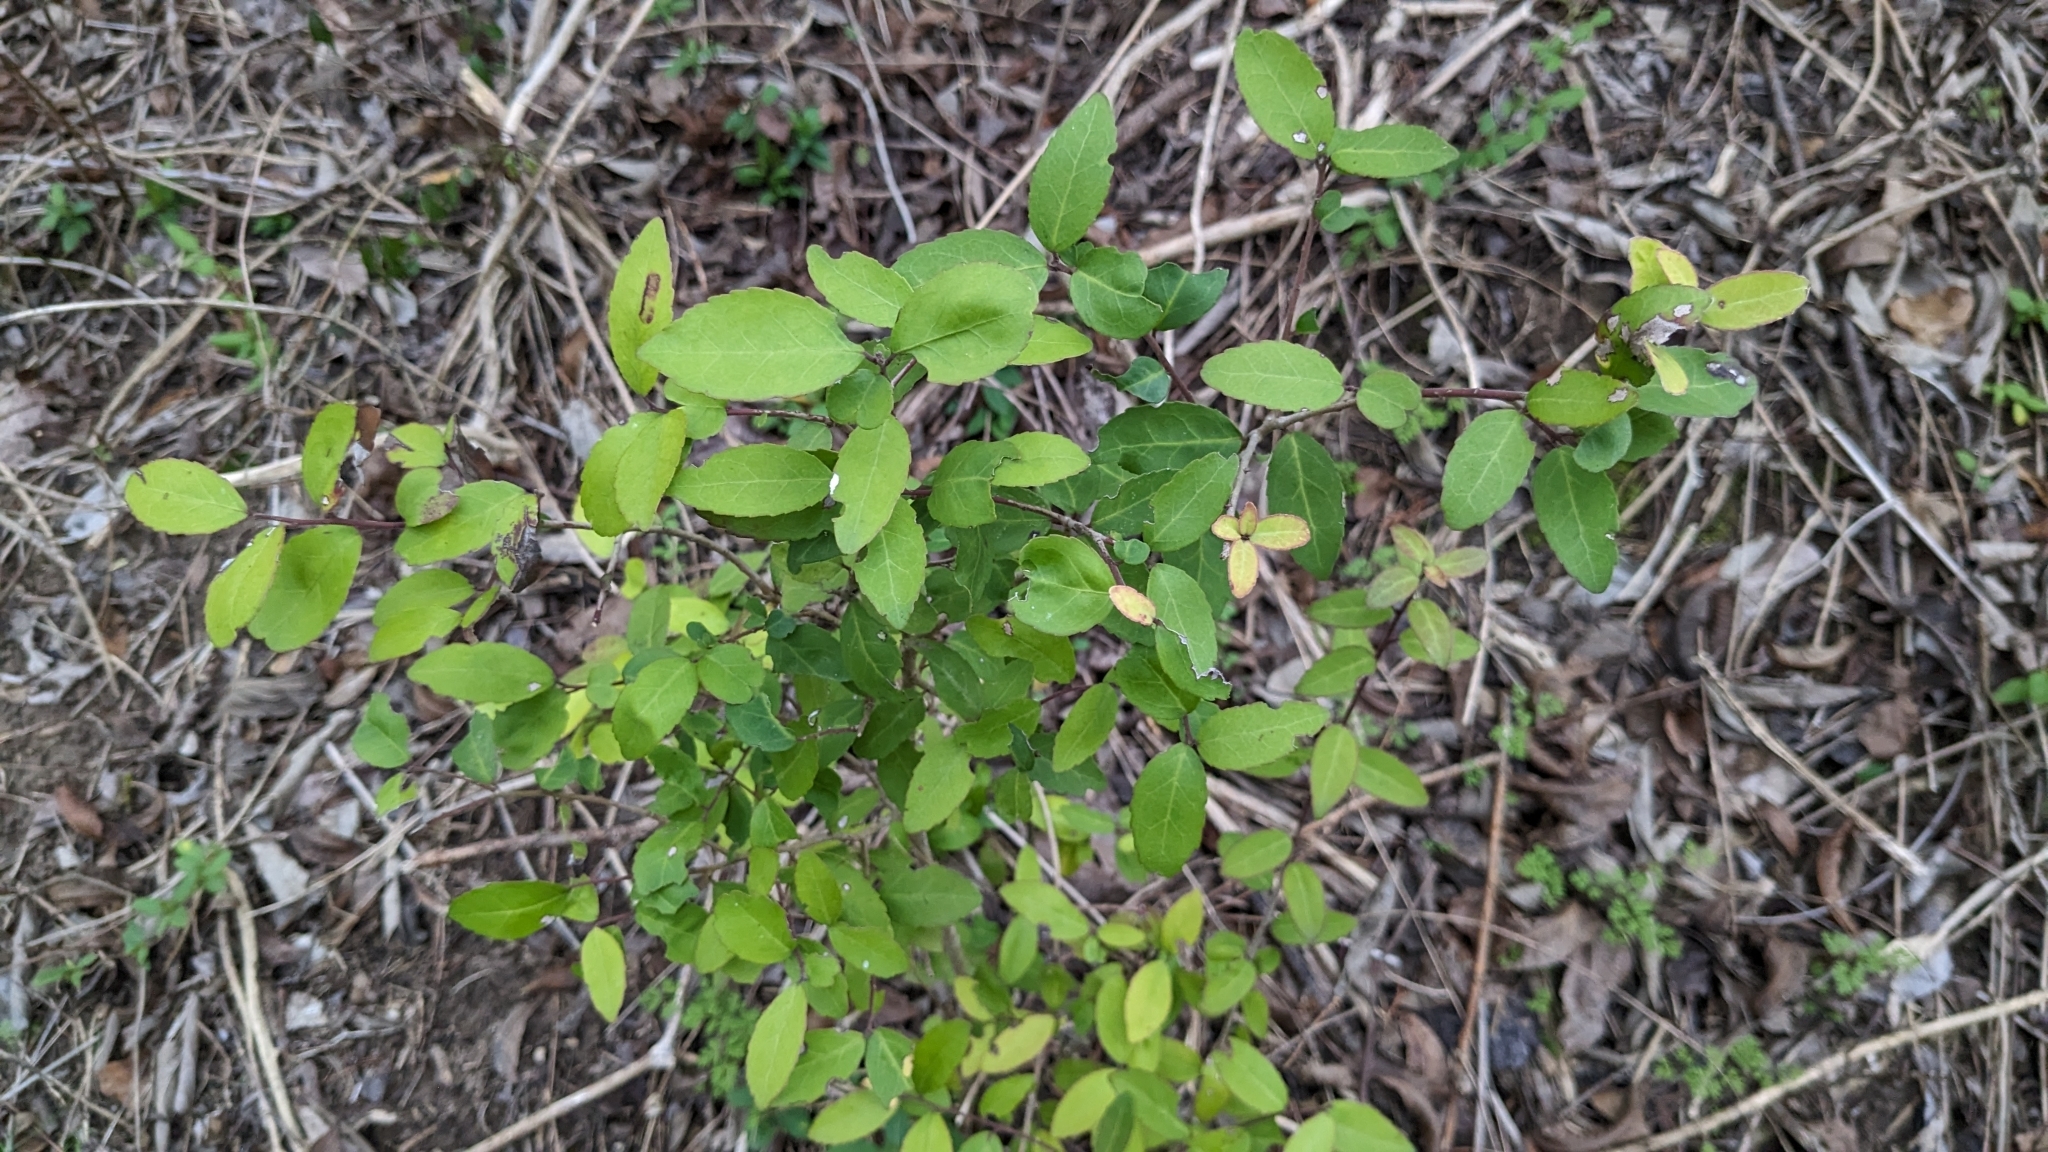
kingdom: Plantae
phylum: Tracheophyta
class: Magnoliopsida
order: Aquifoliales
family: Aquifoliaceae
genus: Ilex
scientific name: Ilex vomitoria
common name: Yaupon holly
